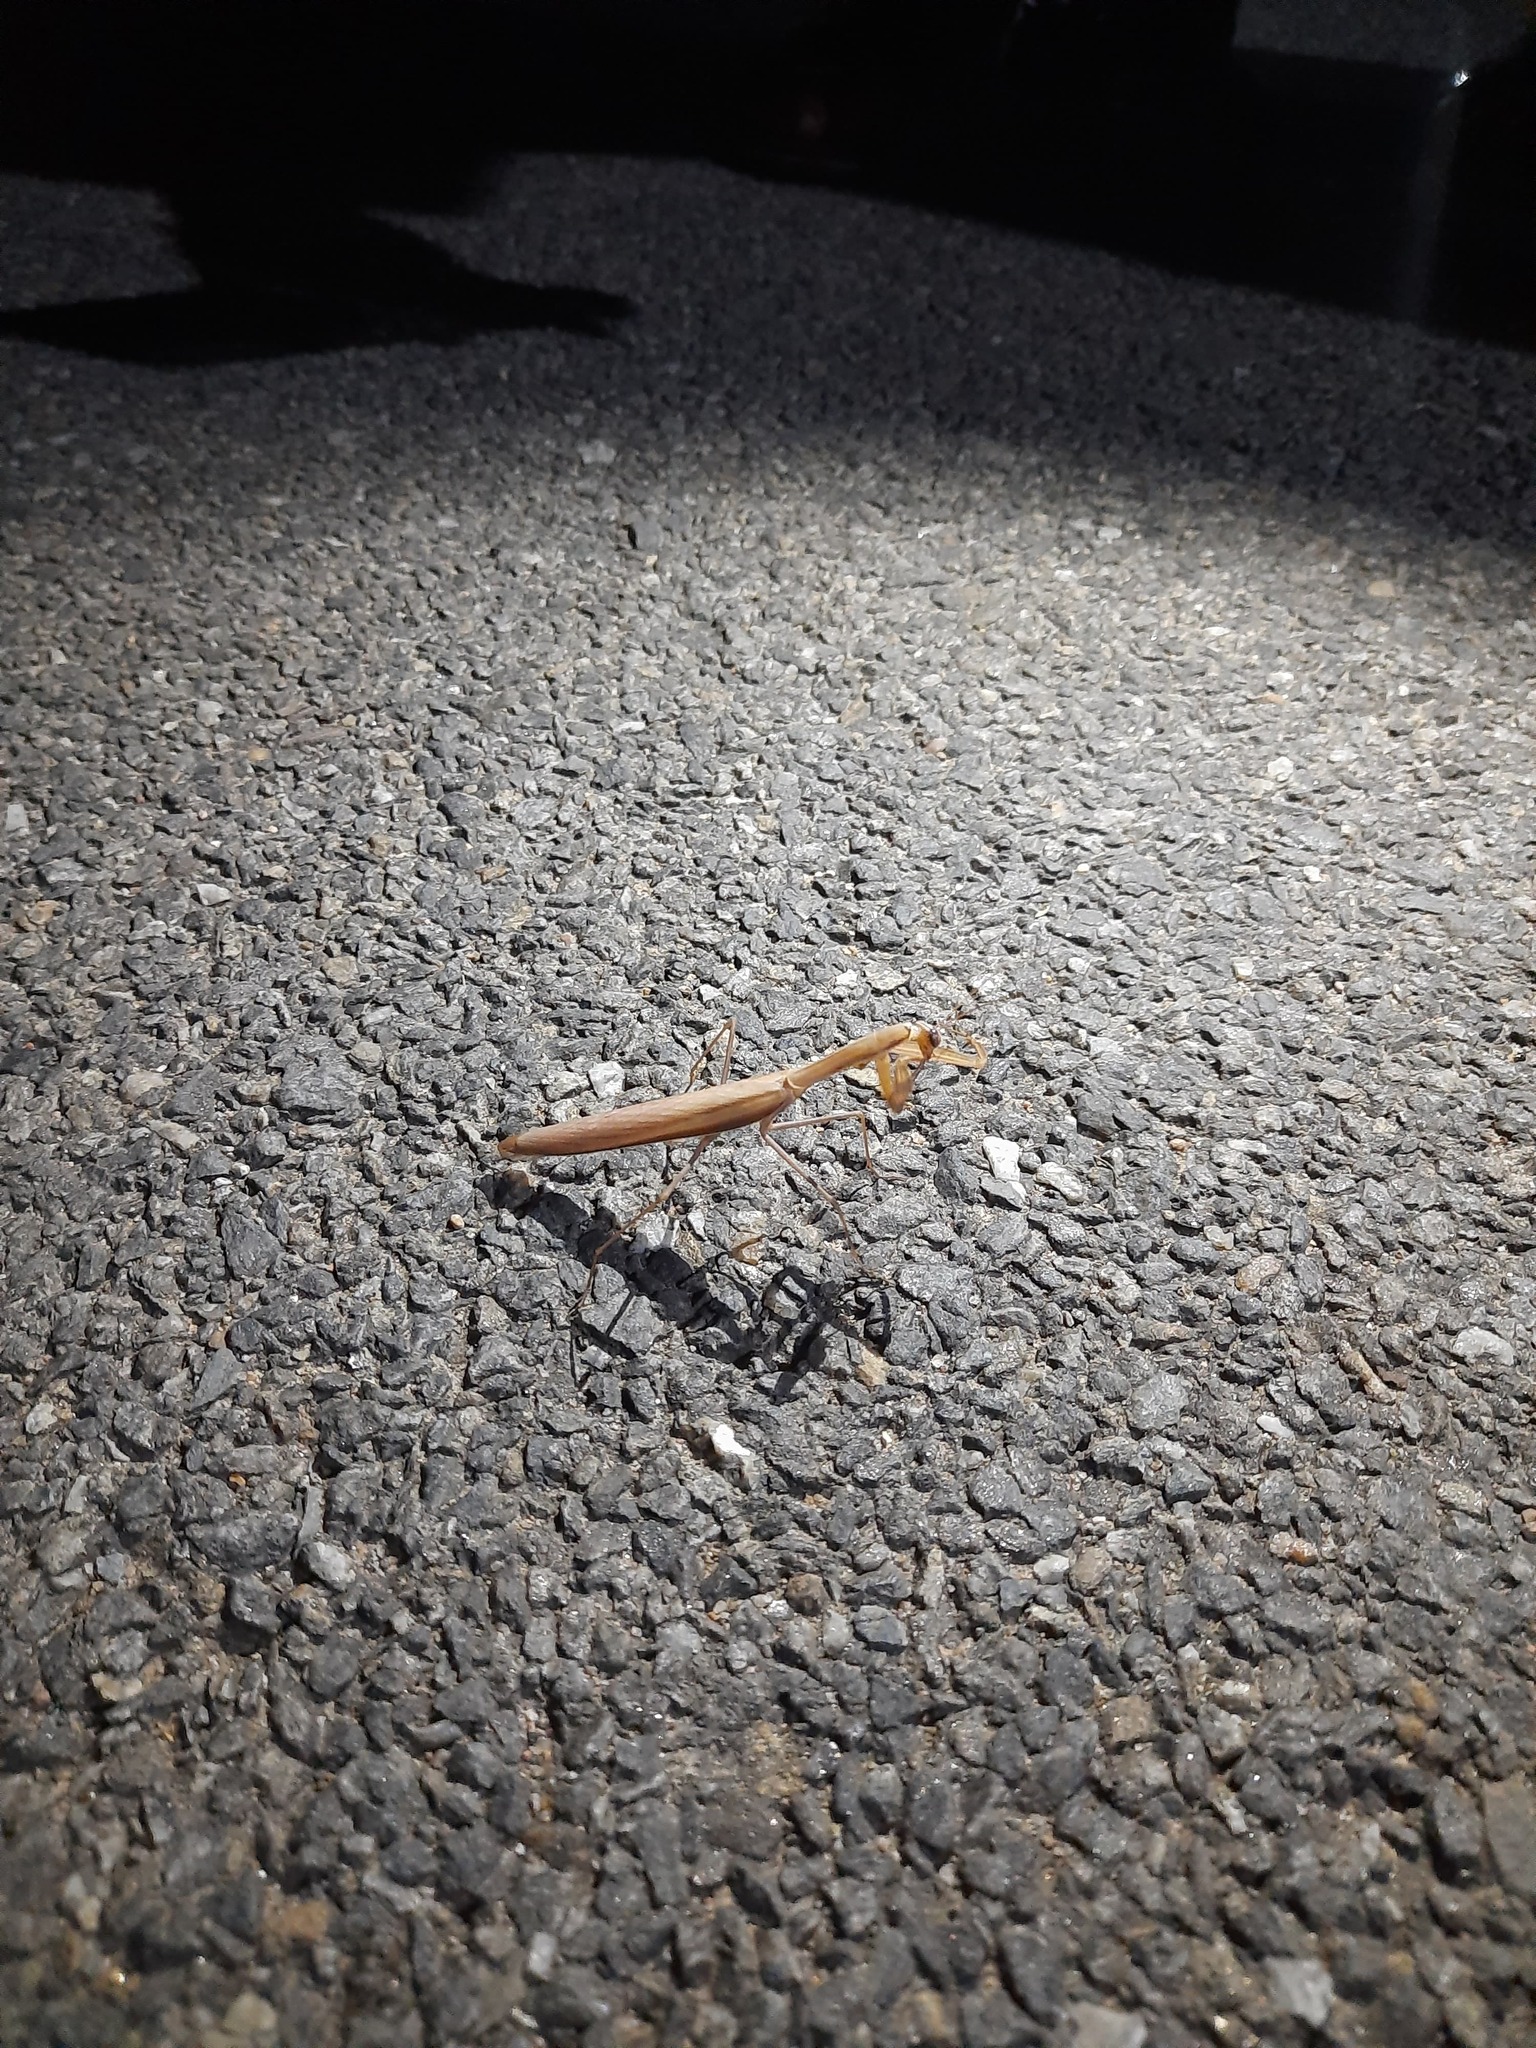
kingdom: Animalia
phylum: Arthropoda
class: Insecta
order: Mantodea
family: Mantidae
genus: Mantis
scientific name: Mantis religiosa
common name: Praying mantis
